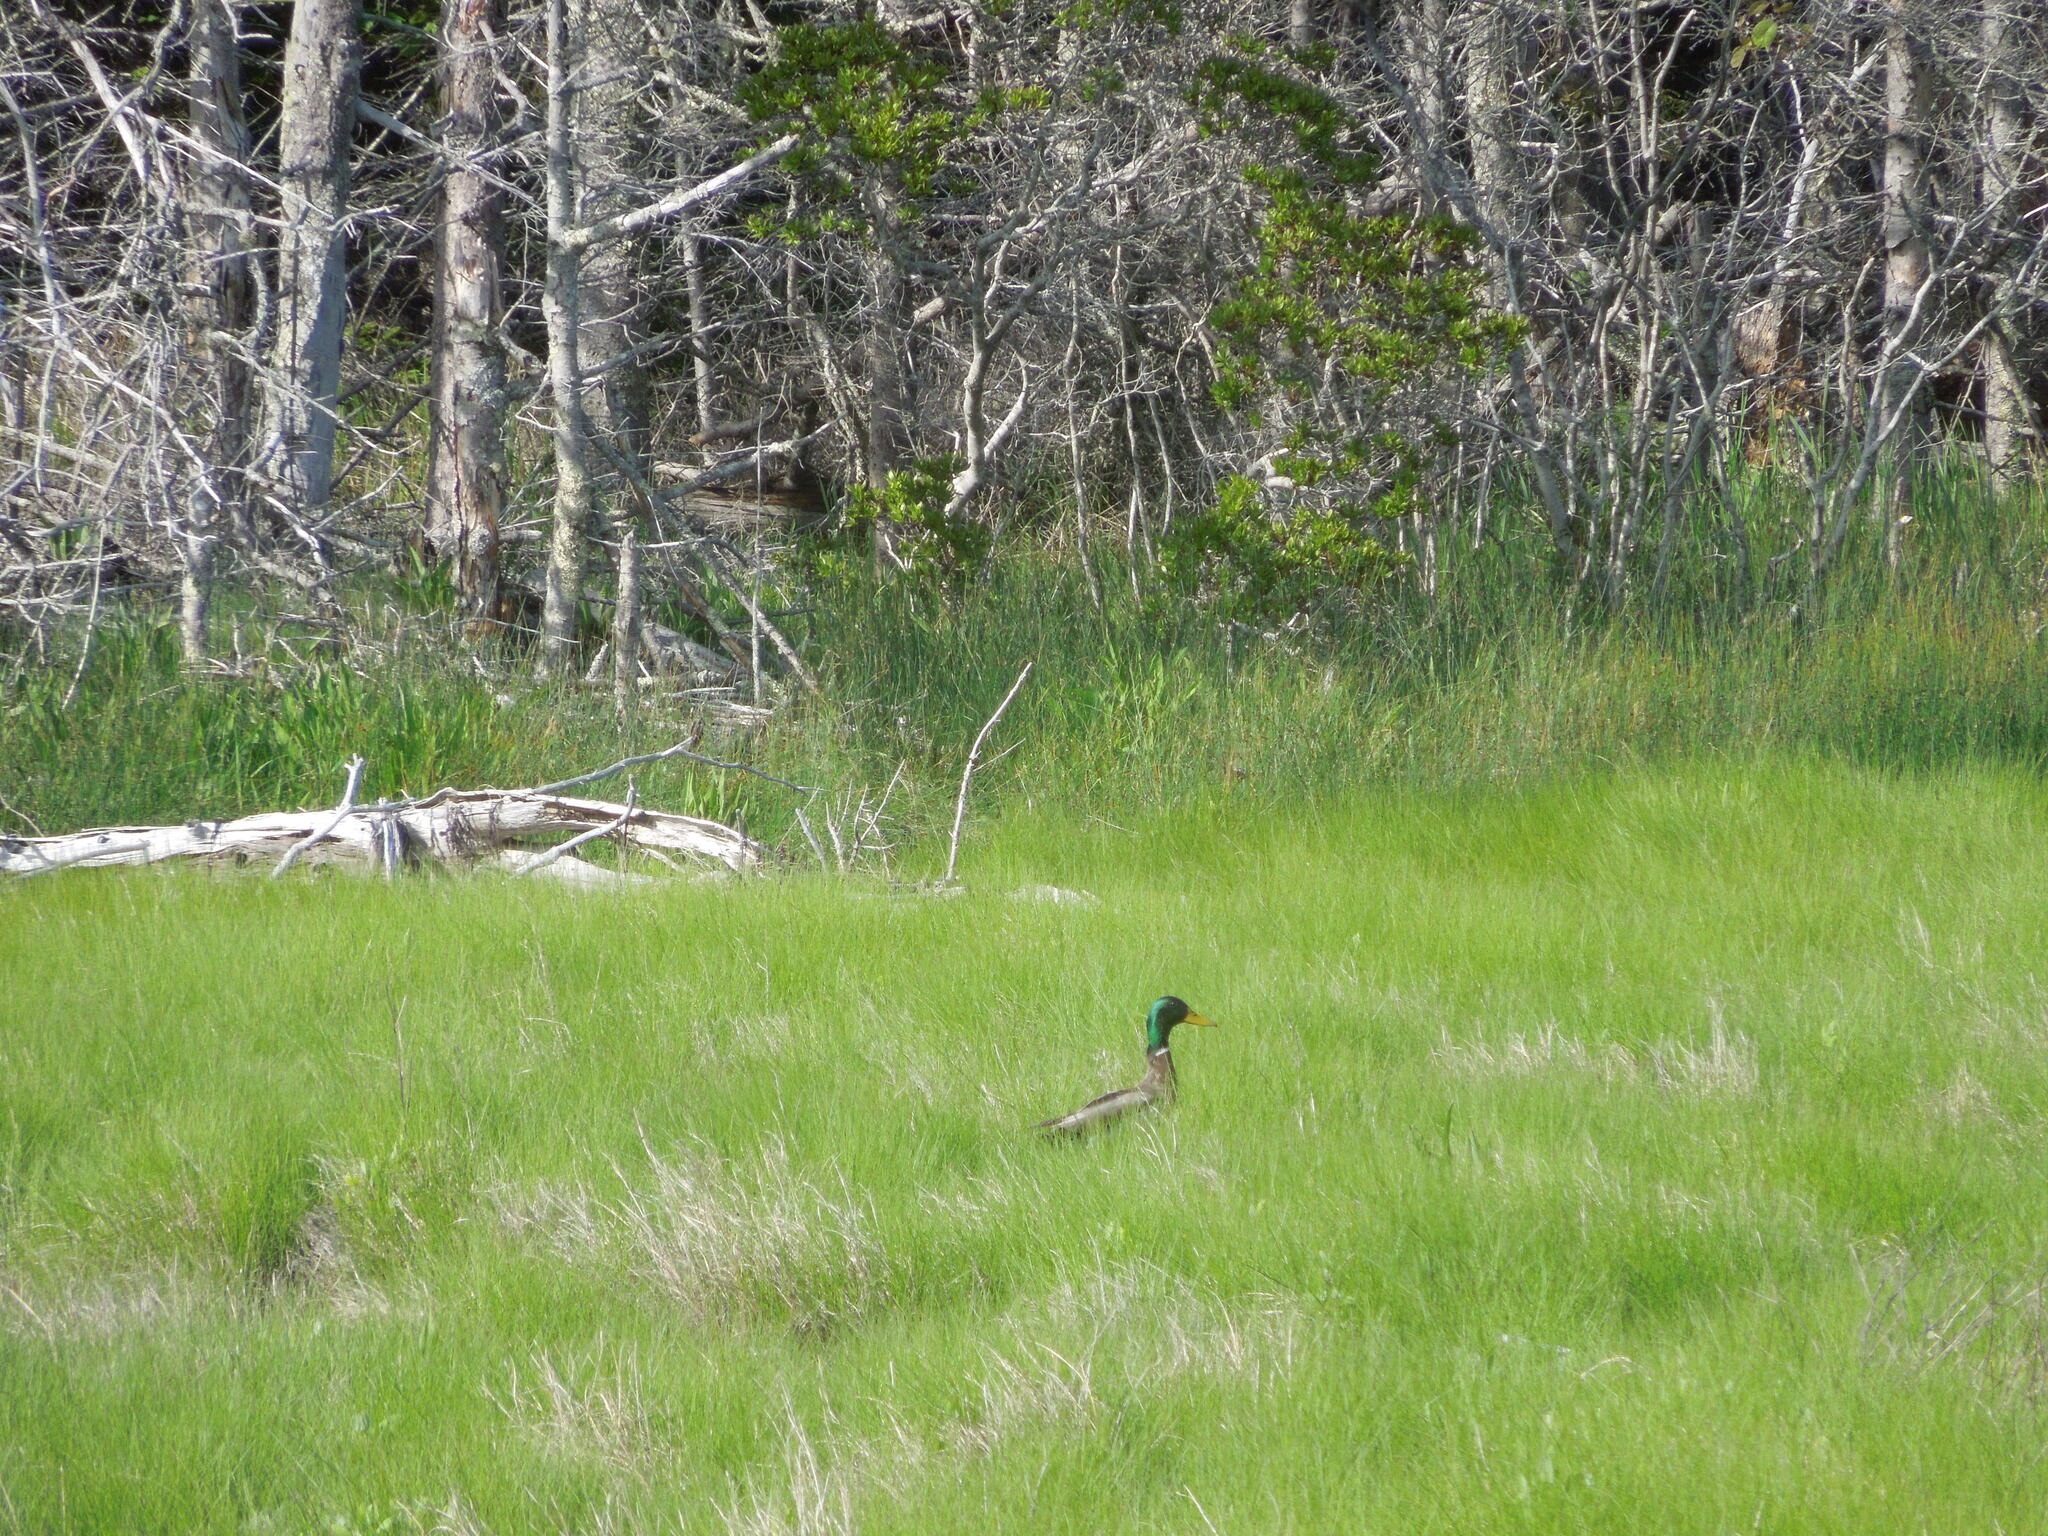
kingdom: Animalia
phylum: Chordata
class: Aves
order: Anseriformes
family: Anatidae
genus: Anas
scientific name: Anas platyrhynchos
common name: Mallard
